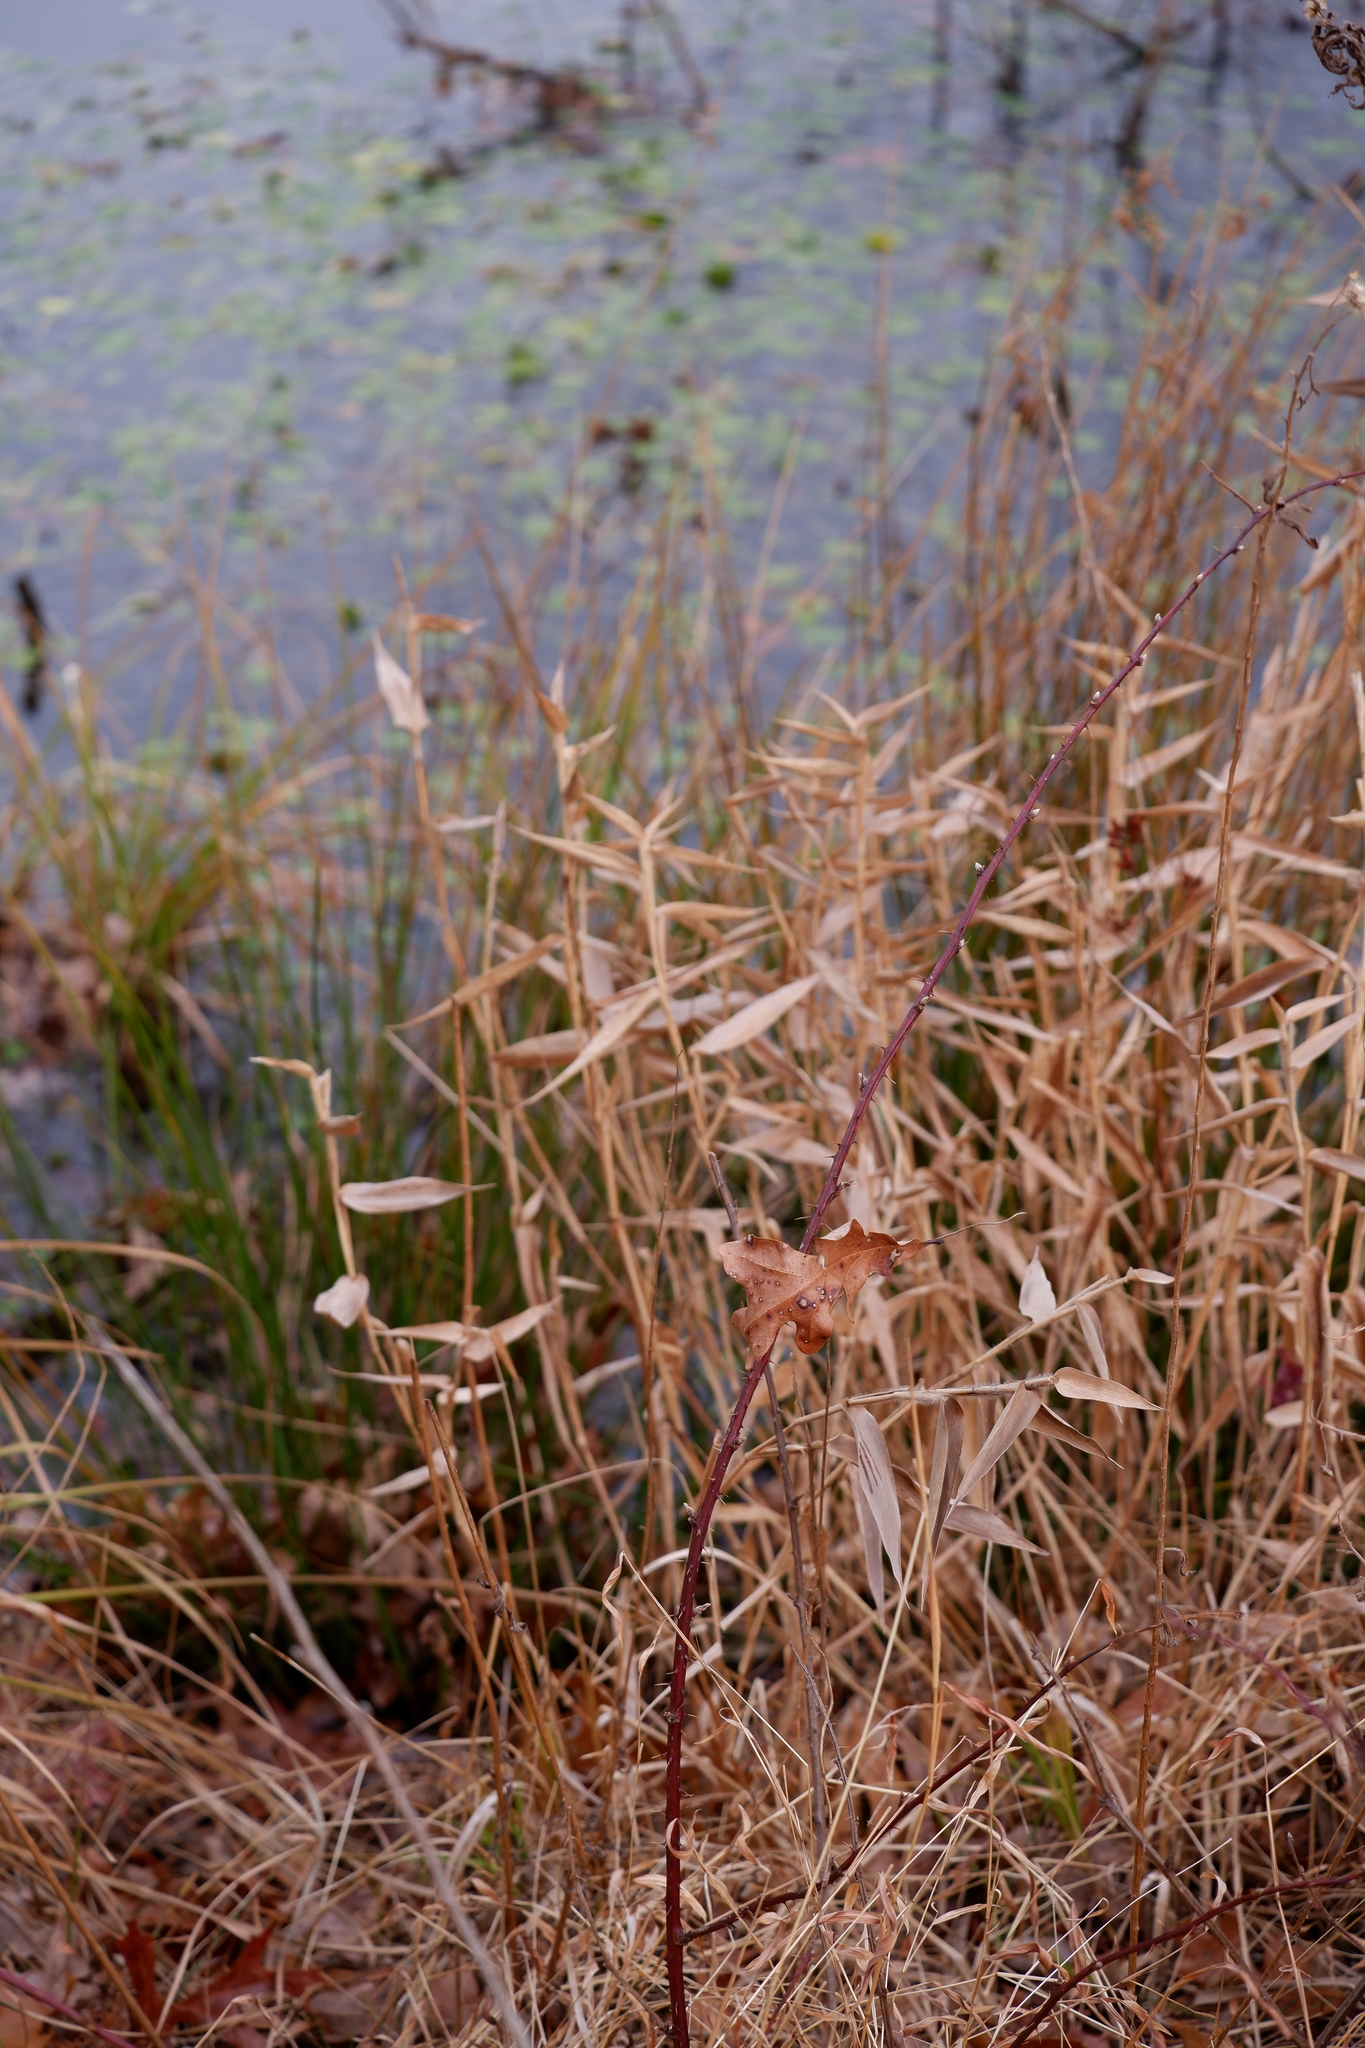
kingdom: Plantae
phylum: Tracheophyta
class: Liliopsida
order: Poales
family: Poaceae
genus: Dichanthelium
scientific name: Dichanthelium clandestinum
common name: Deer-tongue grass
